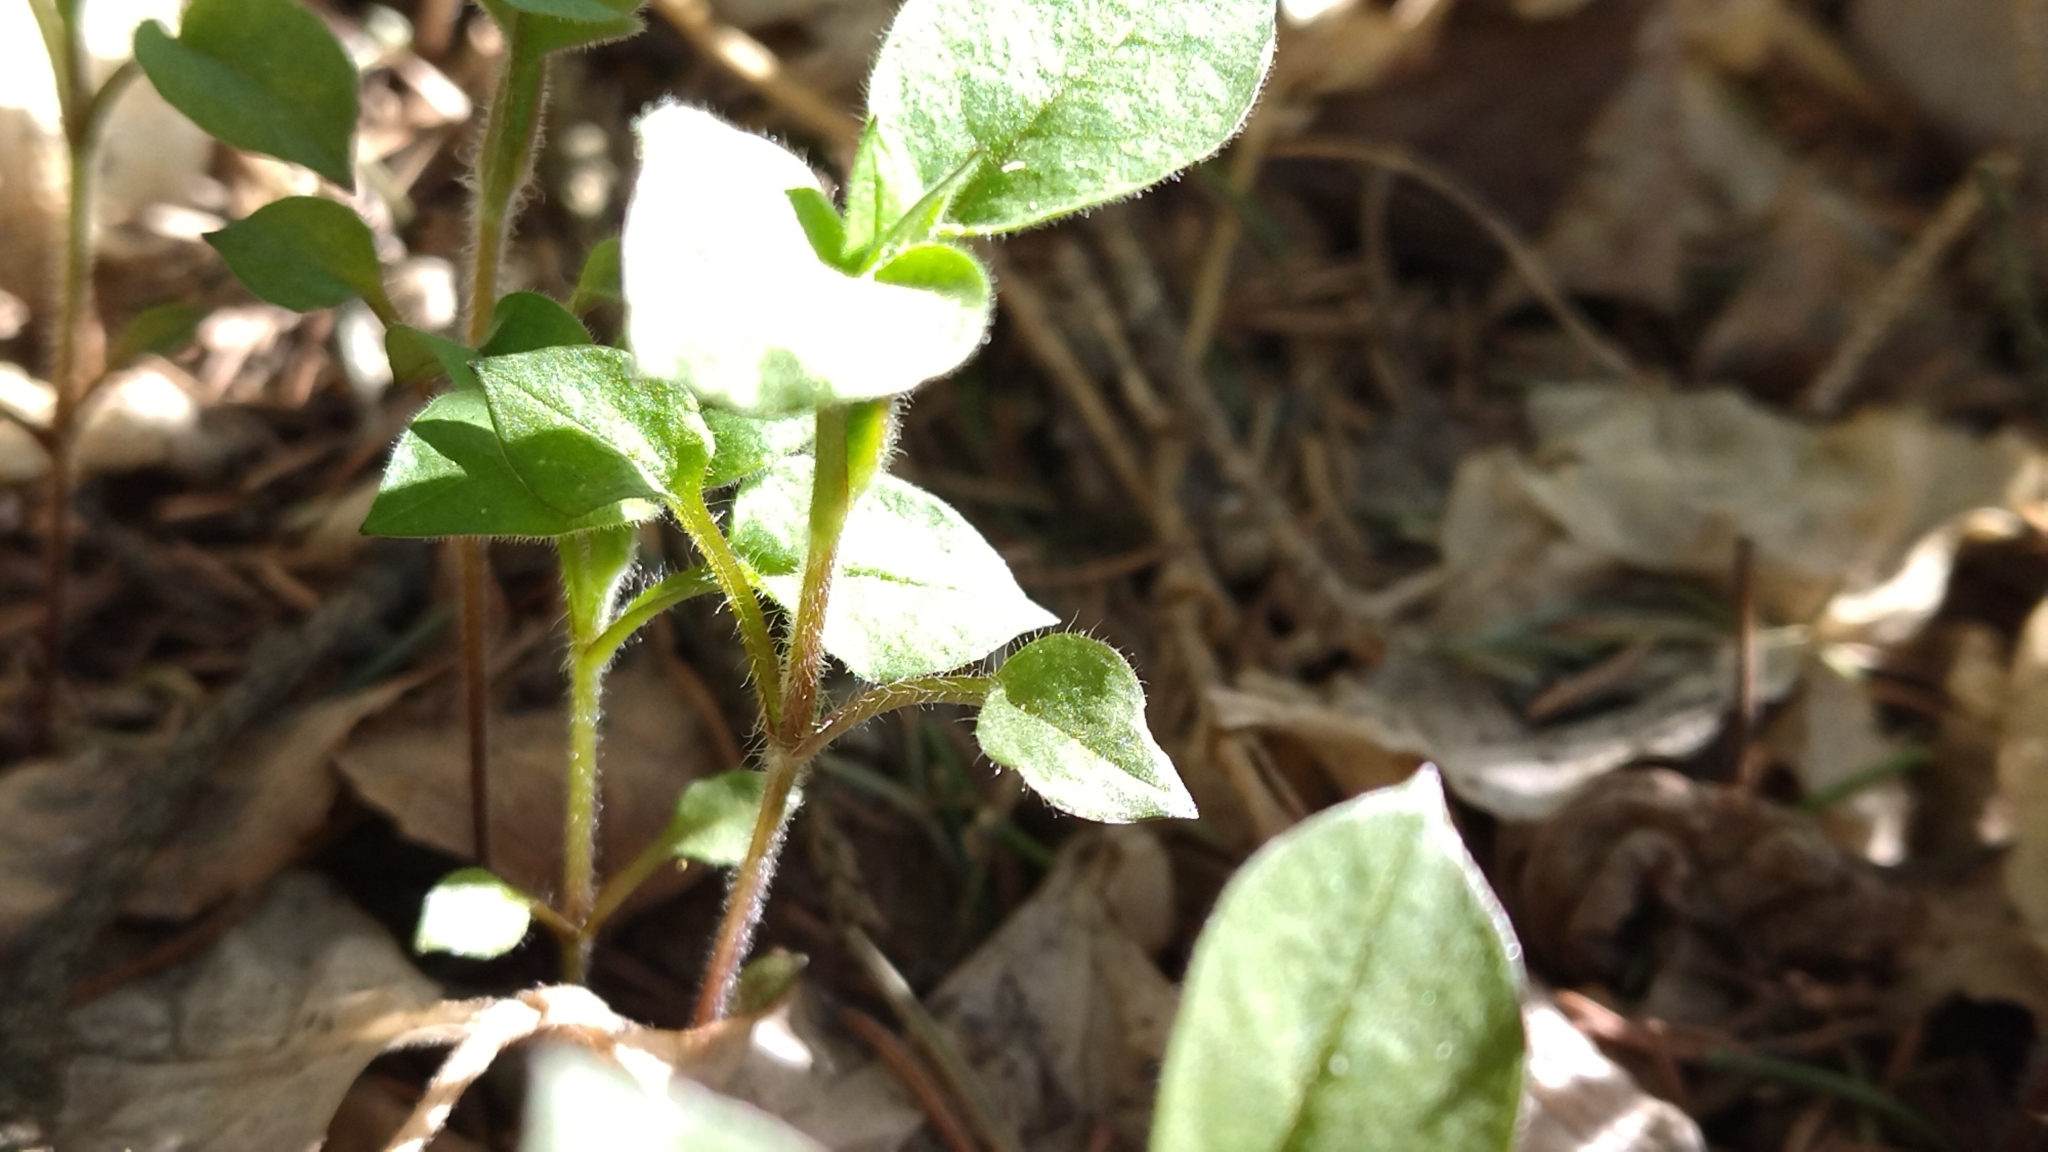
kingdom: Plantae
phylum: Tracheophyta
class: Magnoliopsida
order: Caryophyllales
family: Caryophyllaceae
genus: Stellaria
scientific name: Stellaria bungeana
